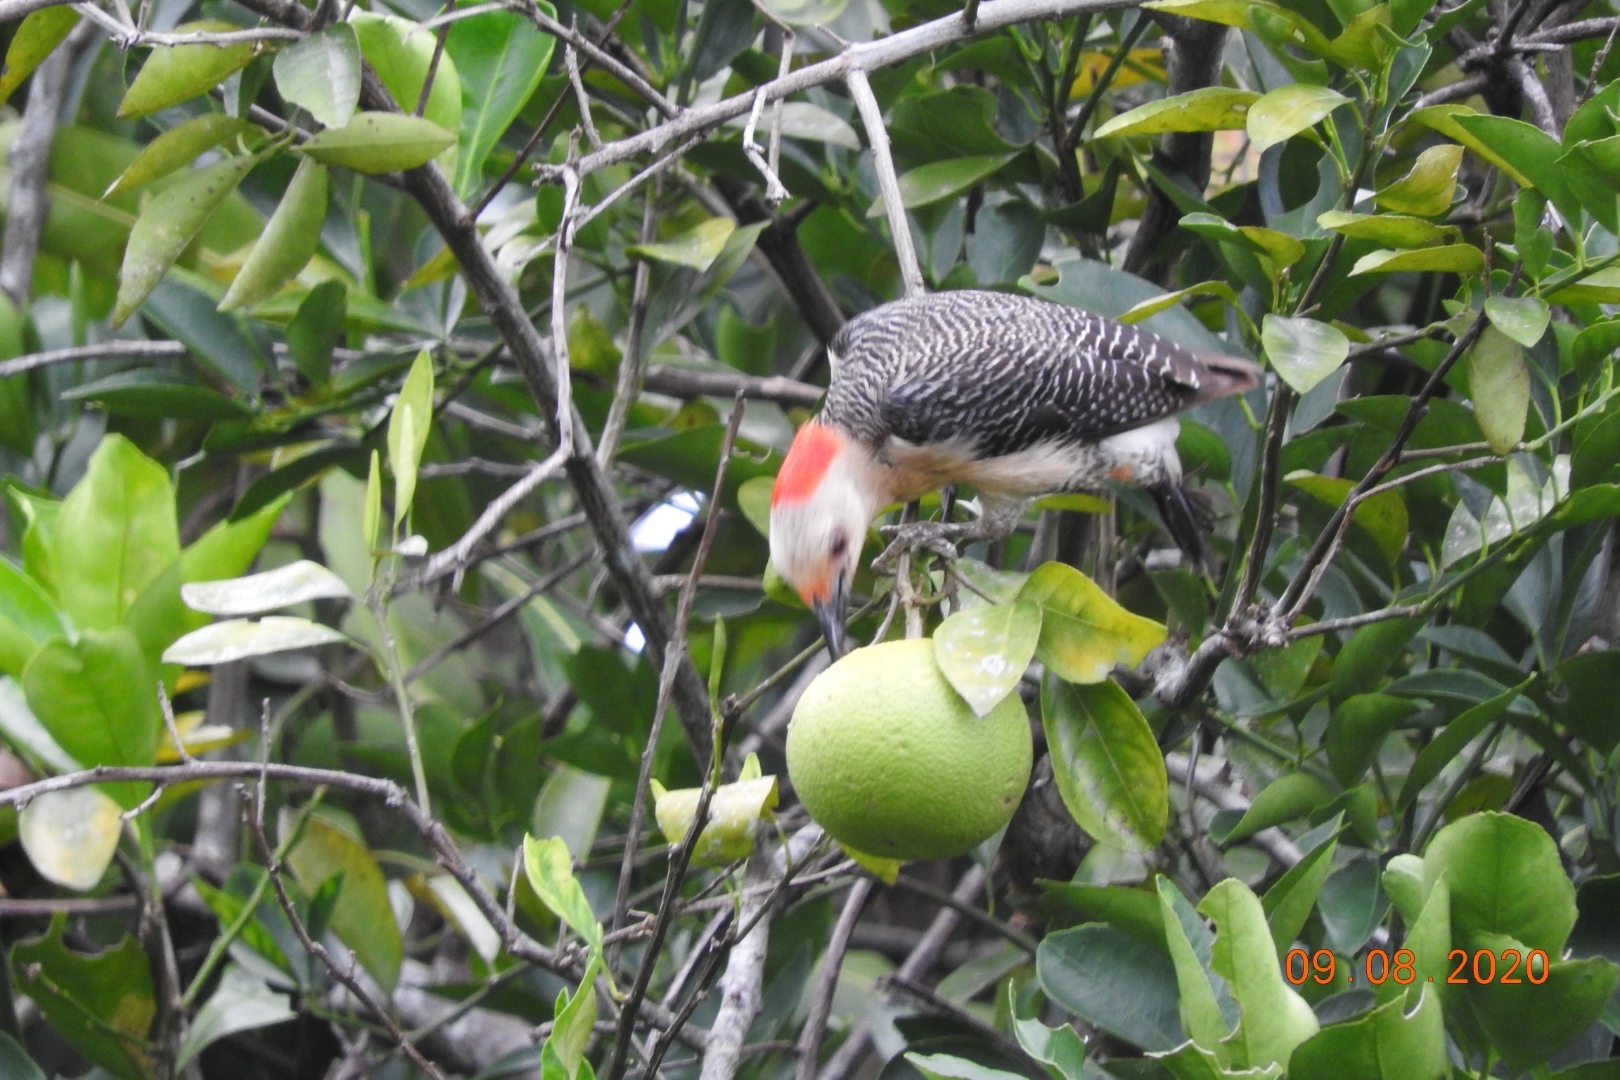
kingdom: Animalia
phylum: Chordata
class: Aves
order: Piciformes
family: Picidae
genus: Melanerpes
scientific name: Melanerpes aurifrons
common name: Golden-fronted woodpecker
